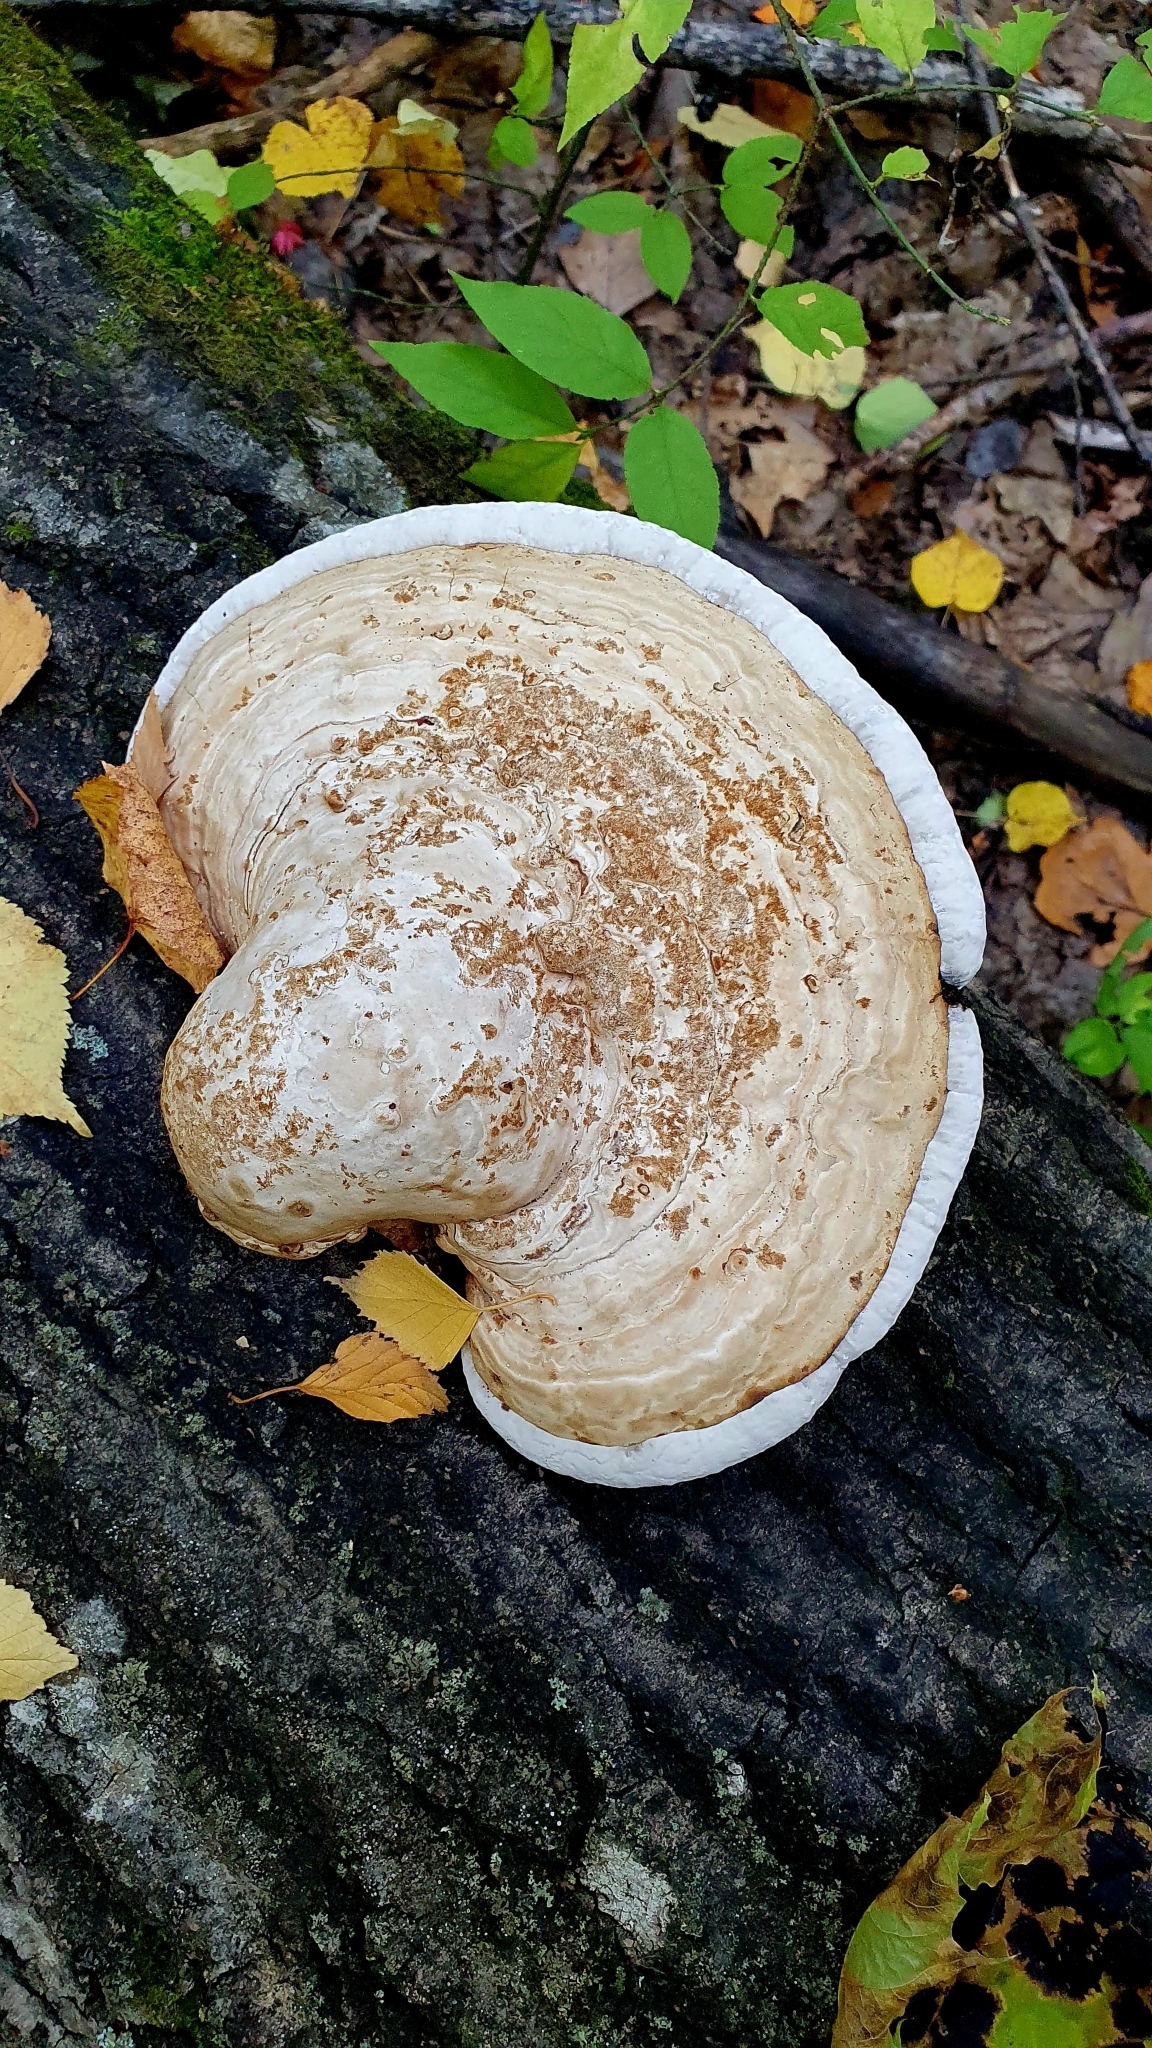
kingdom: Fungi
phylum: Basidiomycota
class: Agaricomycetes
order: Polyporales
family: Polyporaceae
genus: Fomes
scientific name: Fomes fomentarius
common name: Hoof fungus
